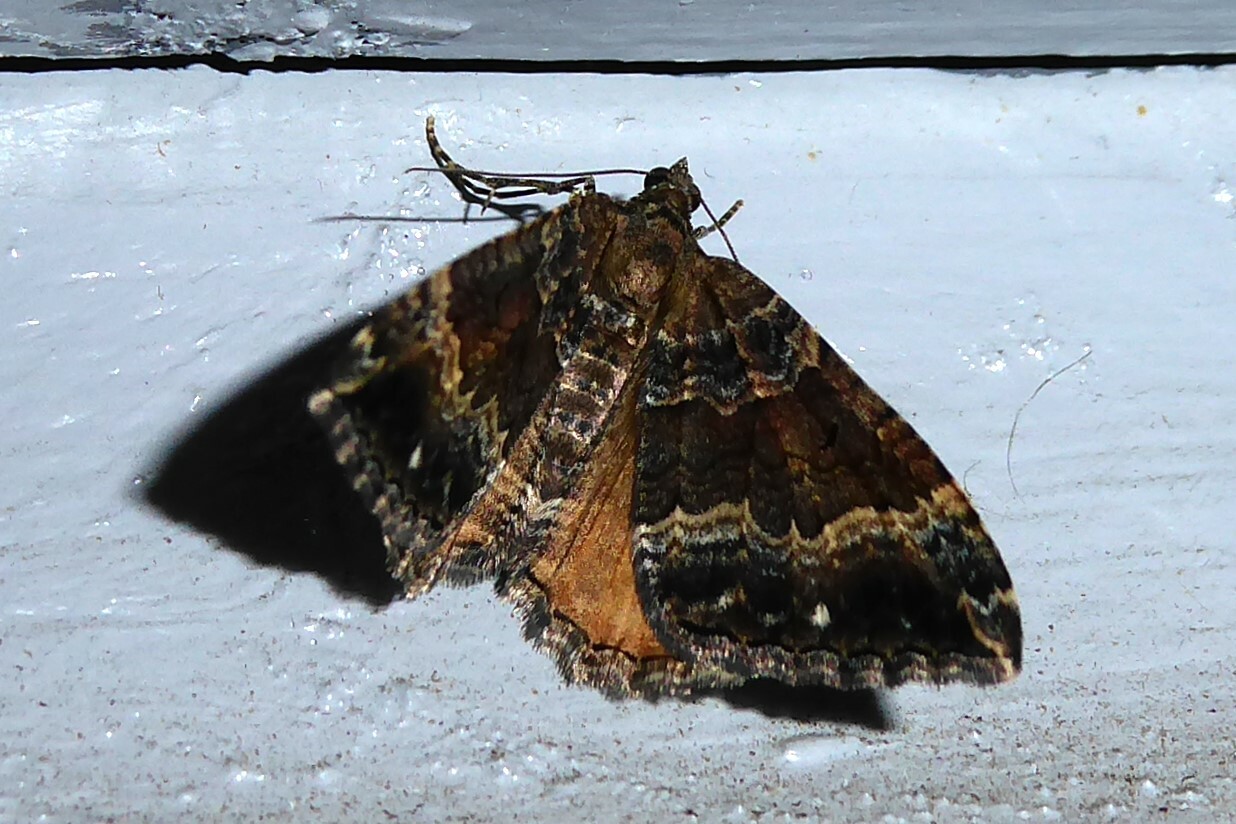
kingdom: Animalia
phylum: Arthropoda
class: Insecta
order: Lepidoptera
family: Geometridae
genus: Hydriomena
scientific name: Hydriomena deltoidata
